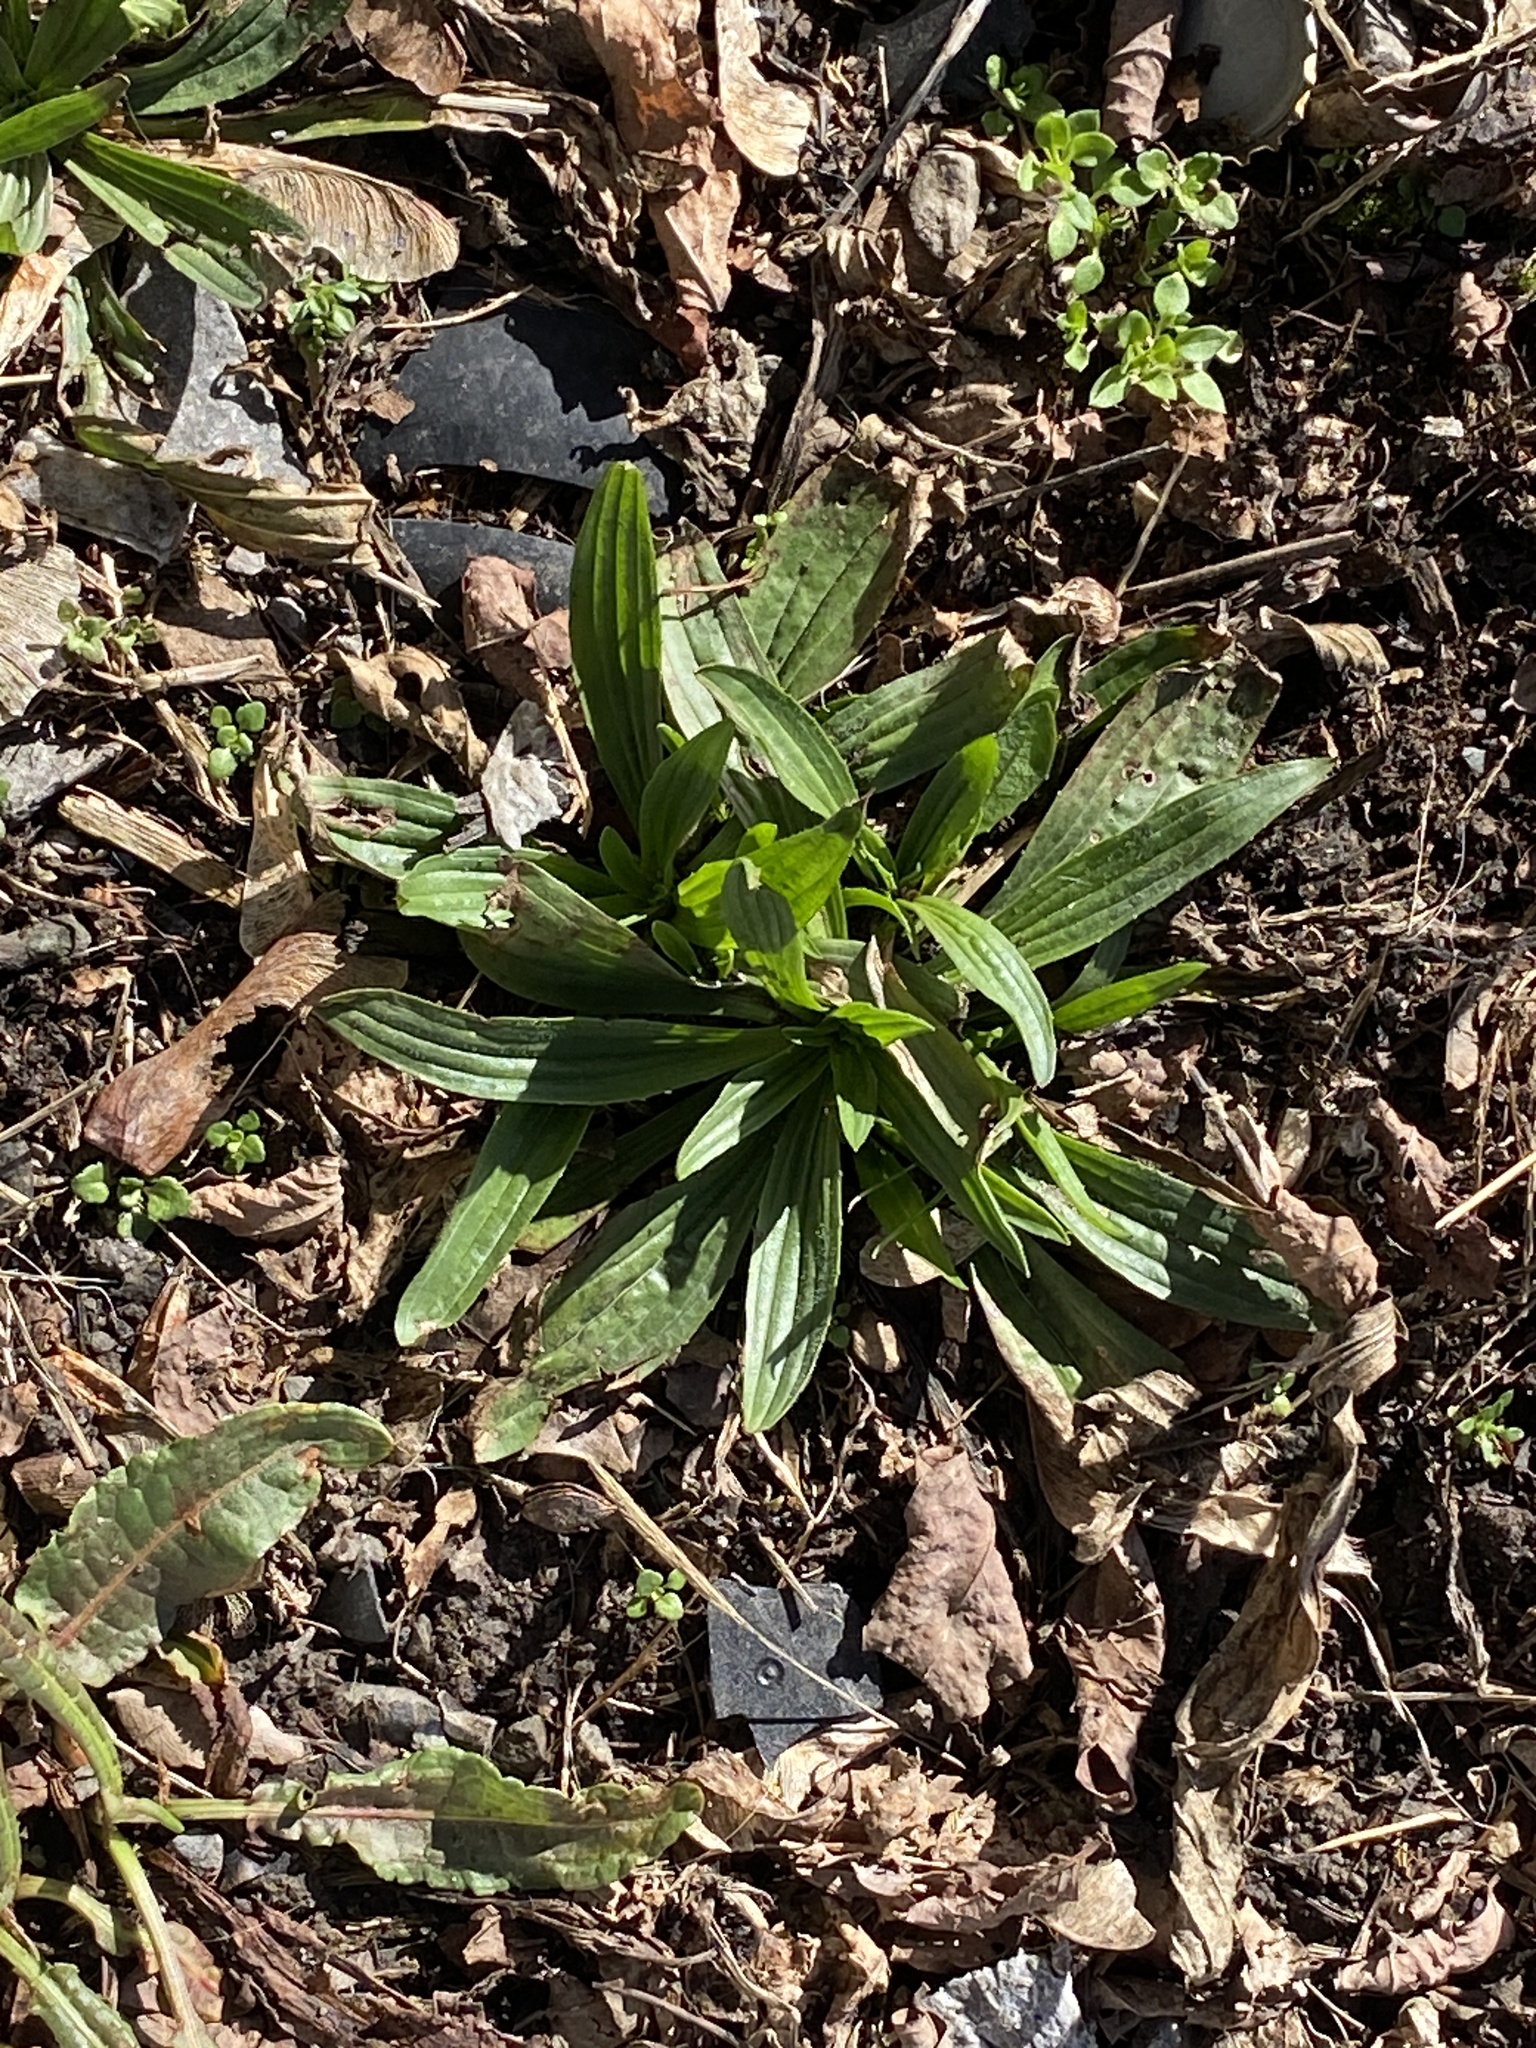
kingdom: Plantae
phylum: Tracheophyta
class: Magnoliopsida
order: Lamiales
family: Plantaginaceae
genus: Plantago
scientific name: Plantago lanceolata
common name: Ribwort plantain
